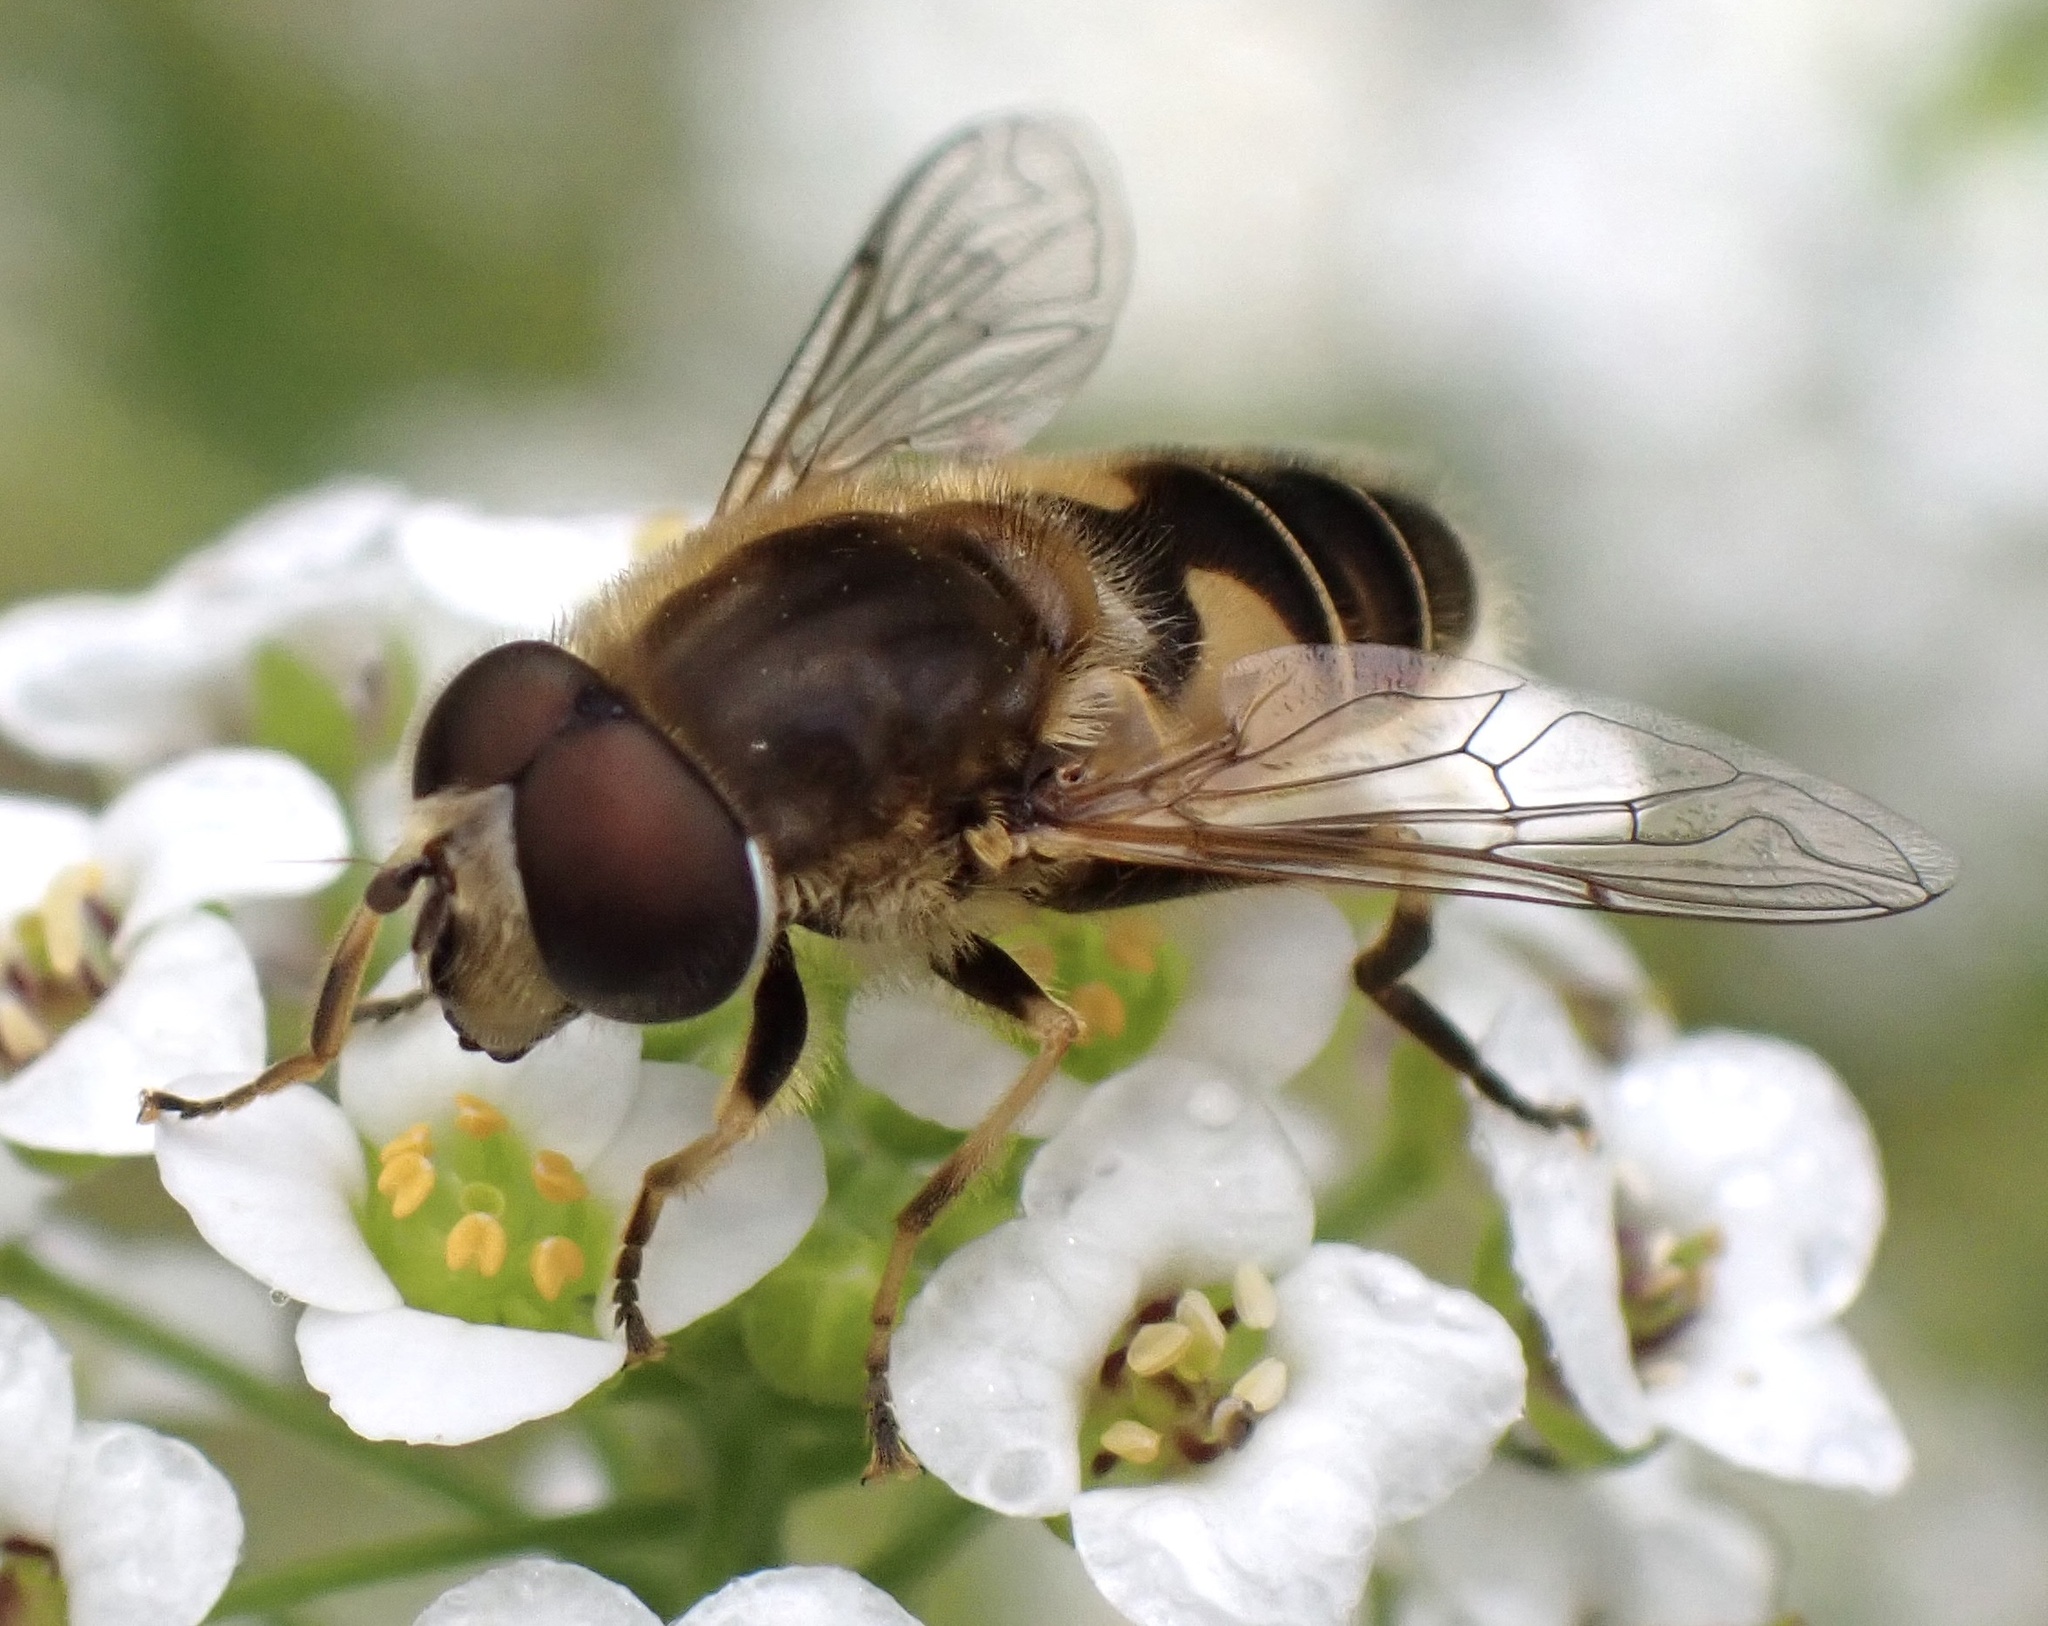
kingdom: Animalia
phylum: Arthropoda
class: Insecta
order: Diptera
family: Syrphidae
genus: Eristalis
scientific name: Eristalis nemorum
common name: Orange-spined drone fly
